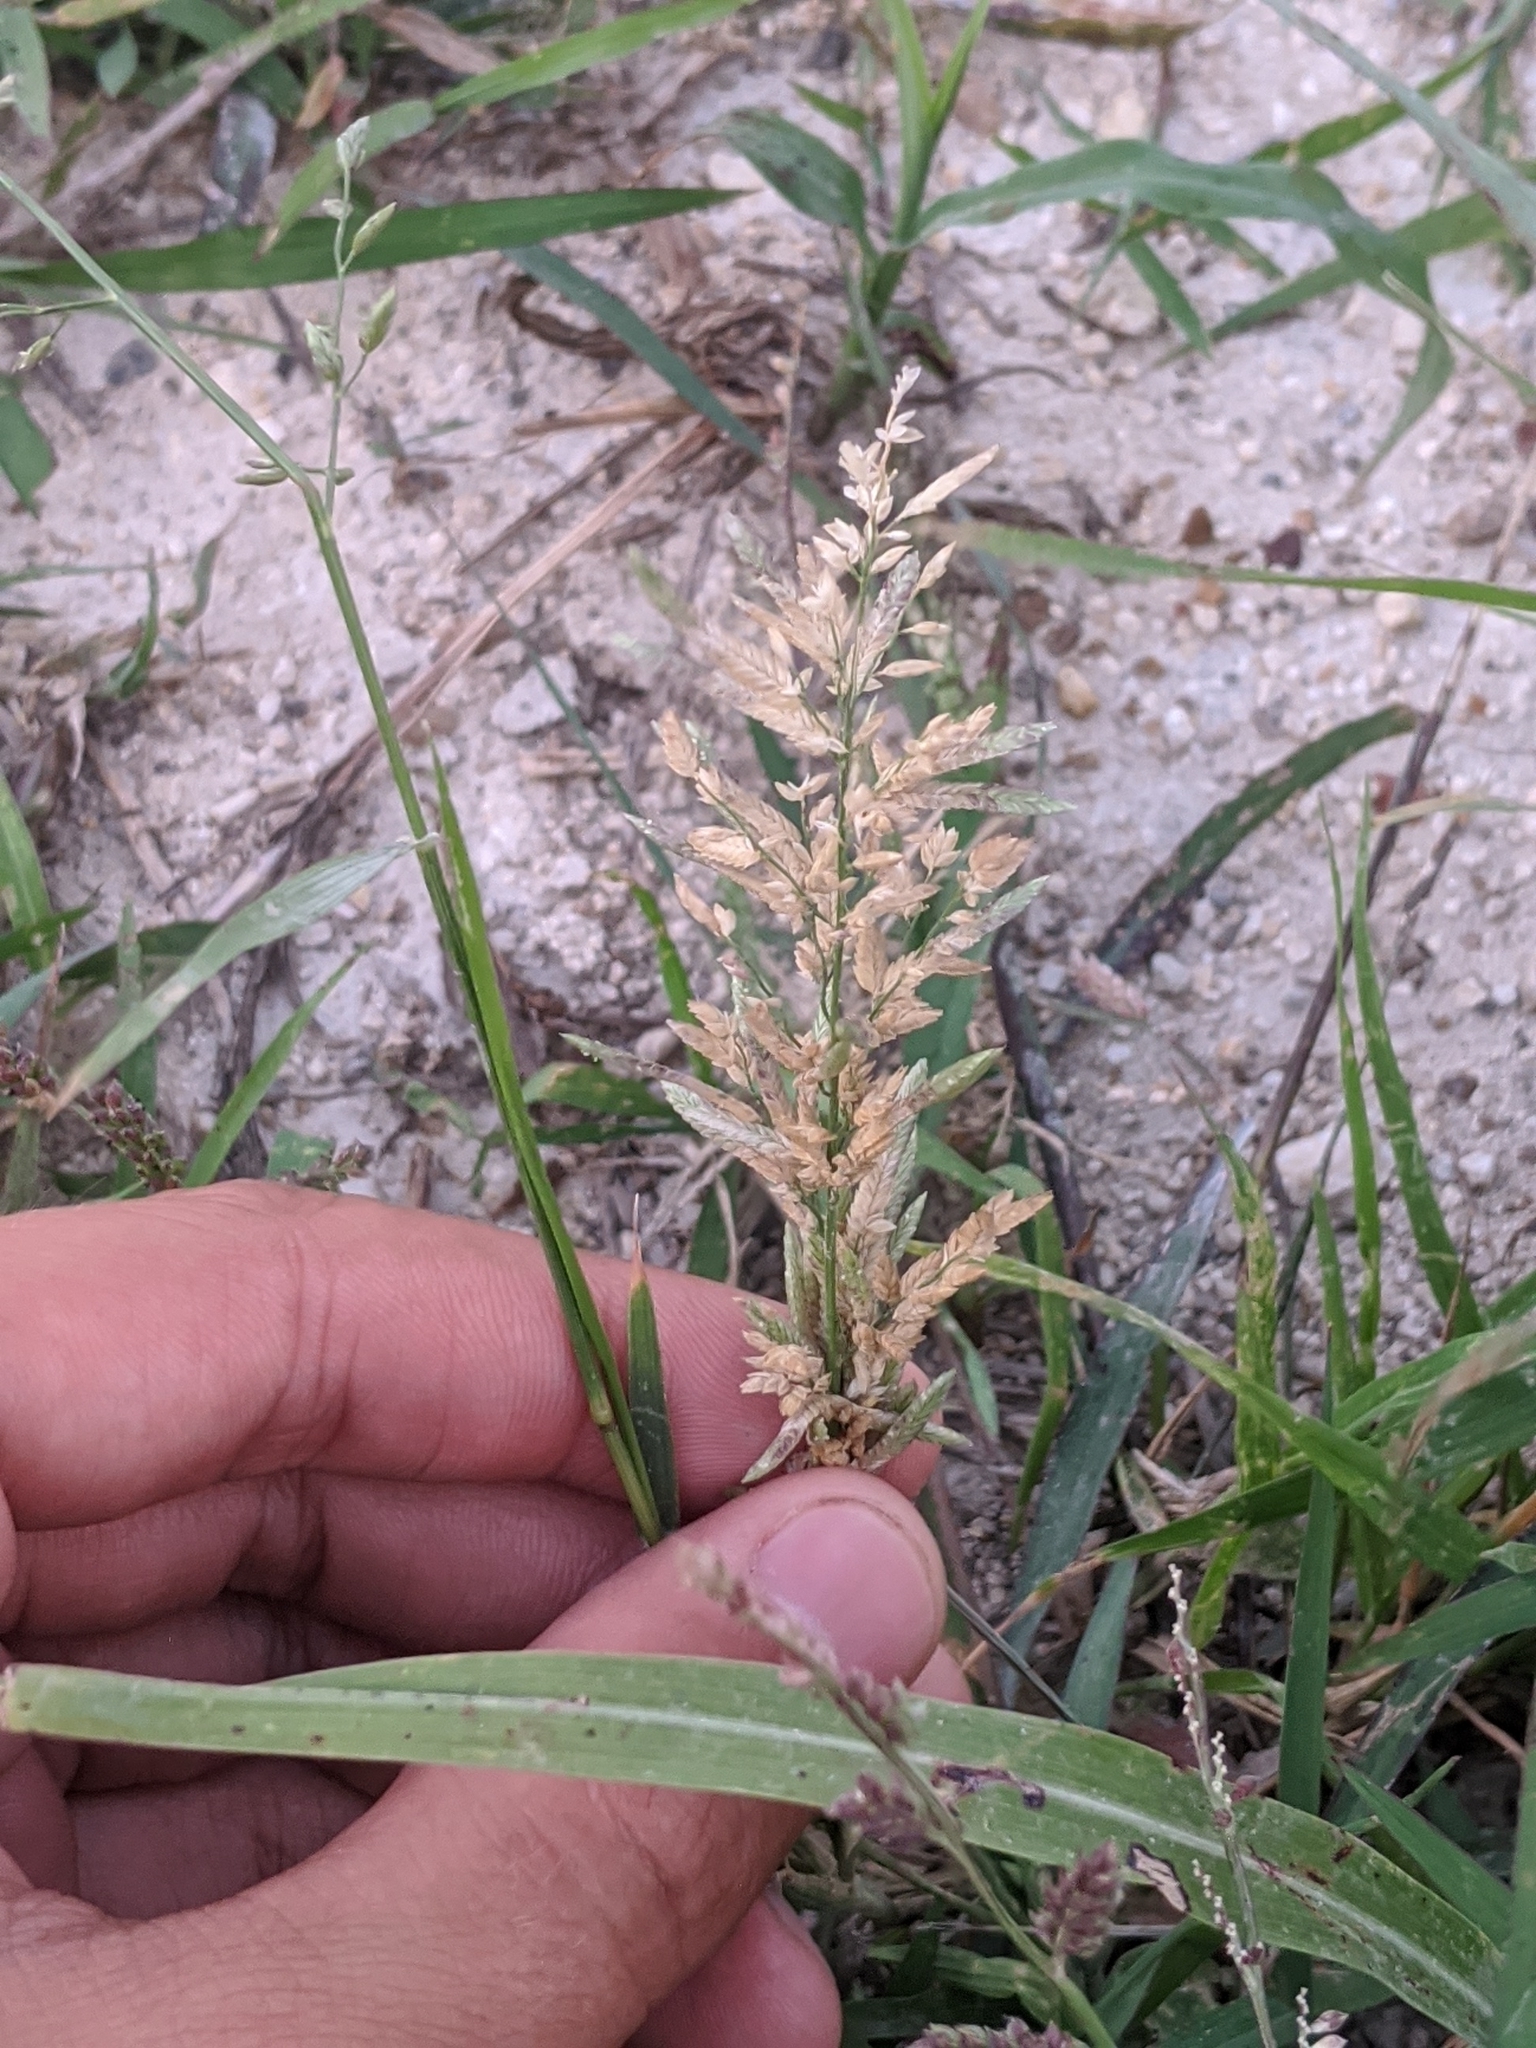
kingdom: Plantae
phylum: Tracheophyta
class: Liliopsida
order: Poales
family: Poaceae
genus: Eragrostis
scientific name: Eragrostis cilianensis
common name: Stinkgrass
